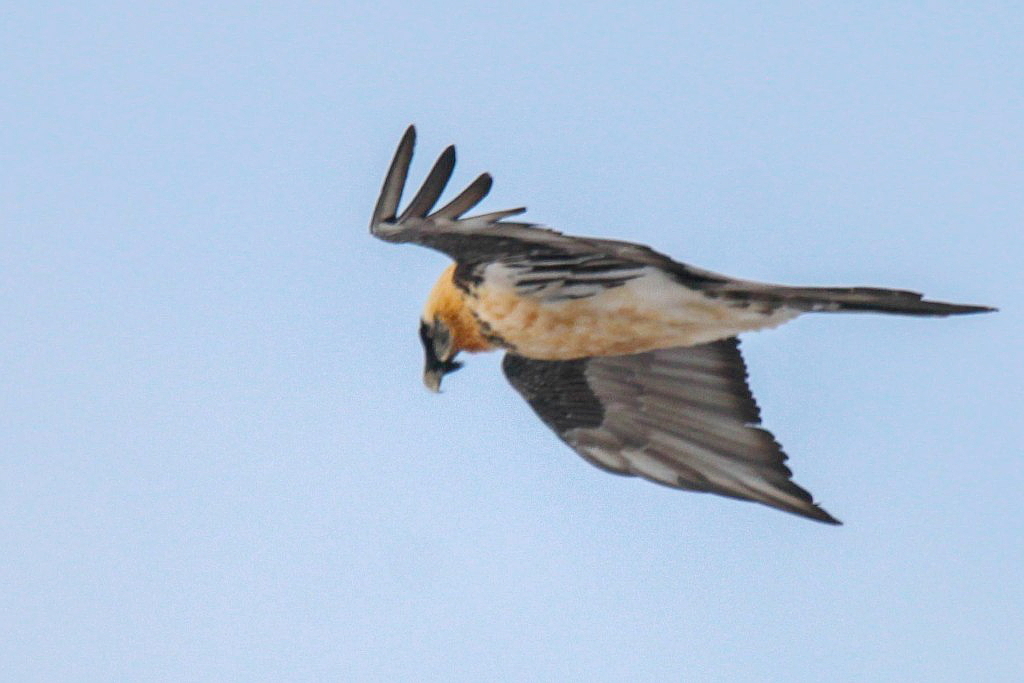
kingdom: Animalia
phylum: Chordata
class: Aves
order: Accipitriformes
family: Accipitridae
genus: Gypaetus
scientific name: Gypaetus barbatus
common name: Bearded vulture
